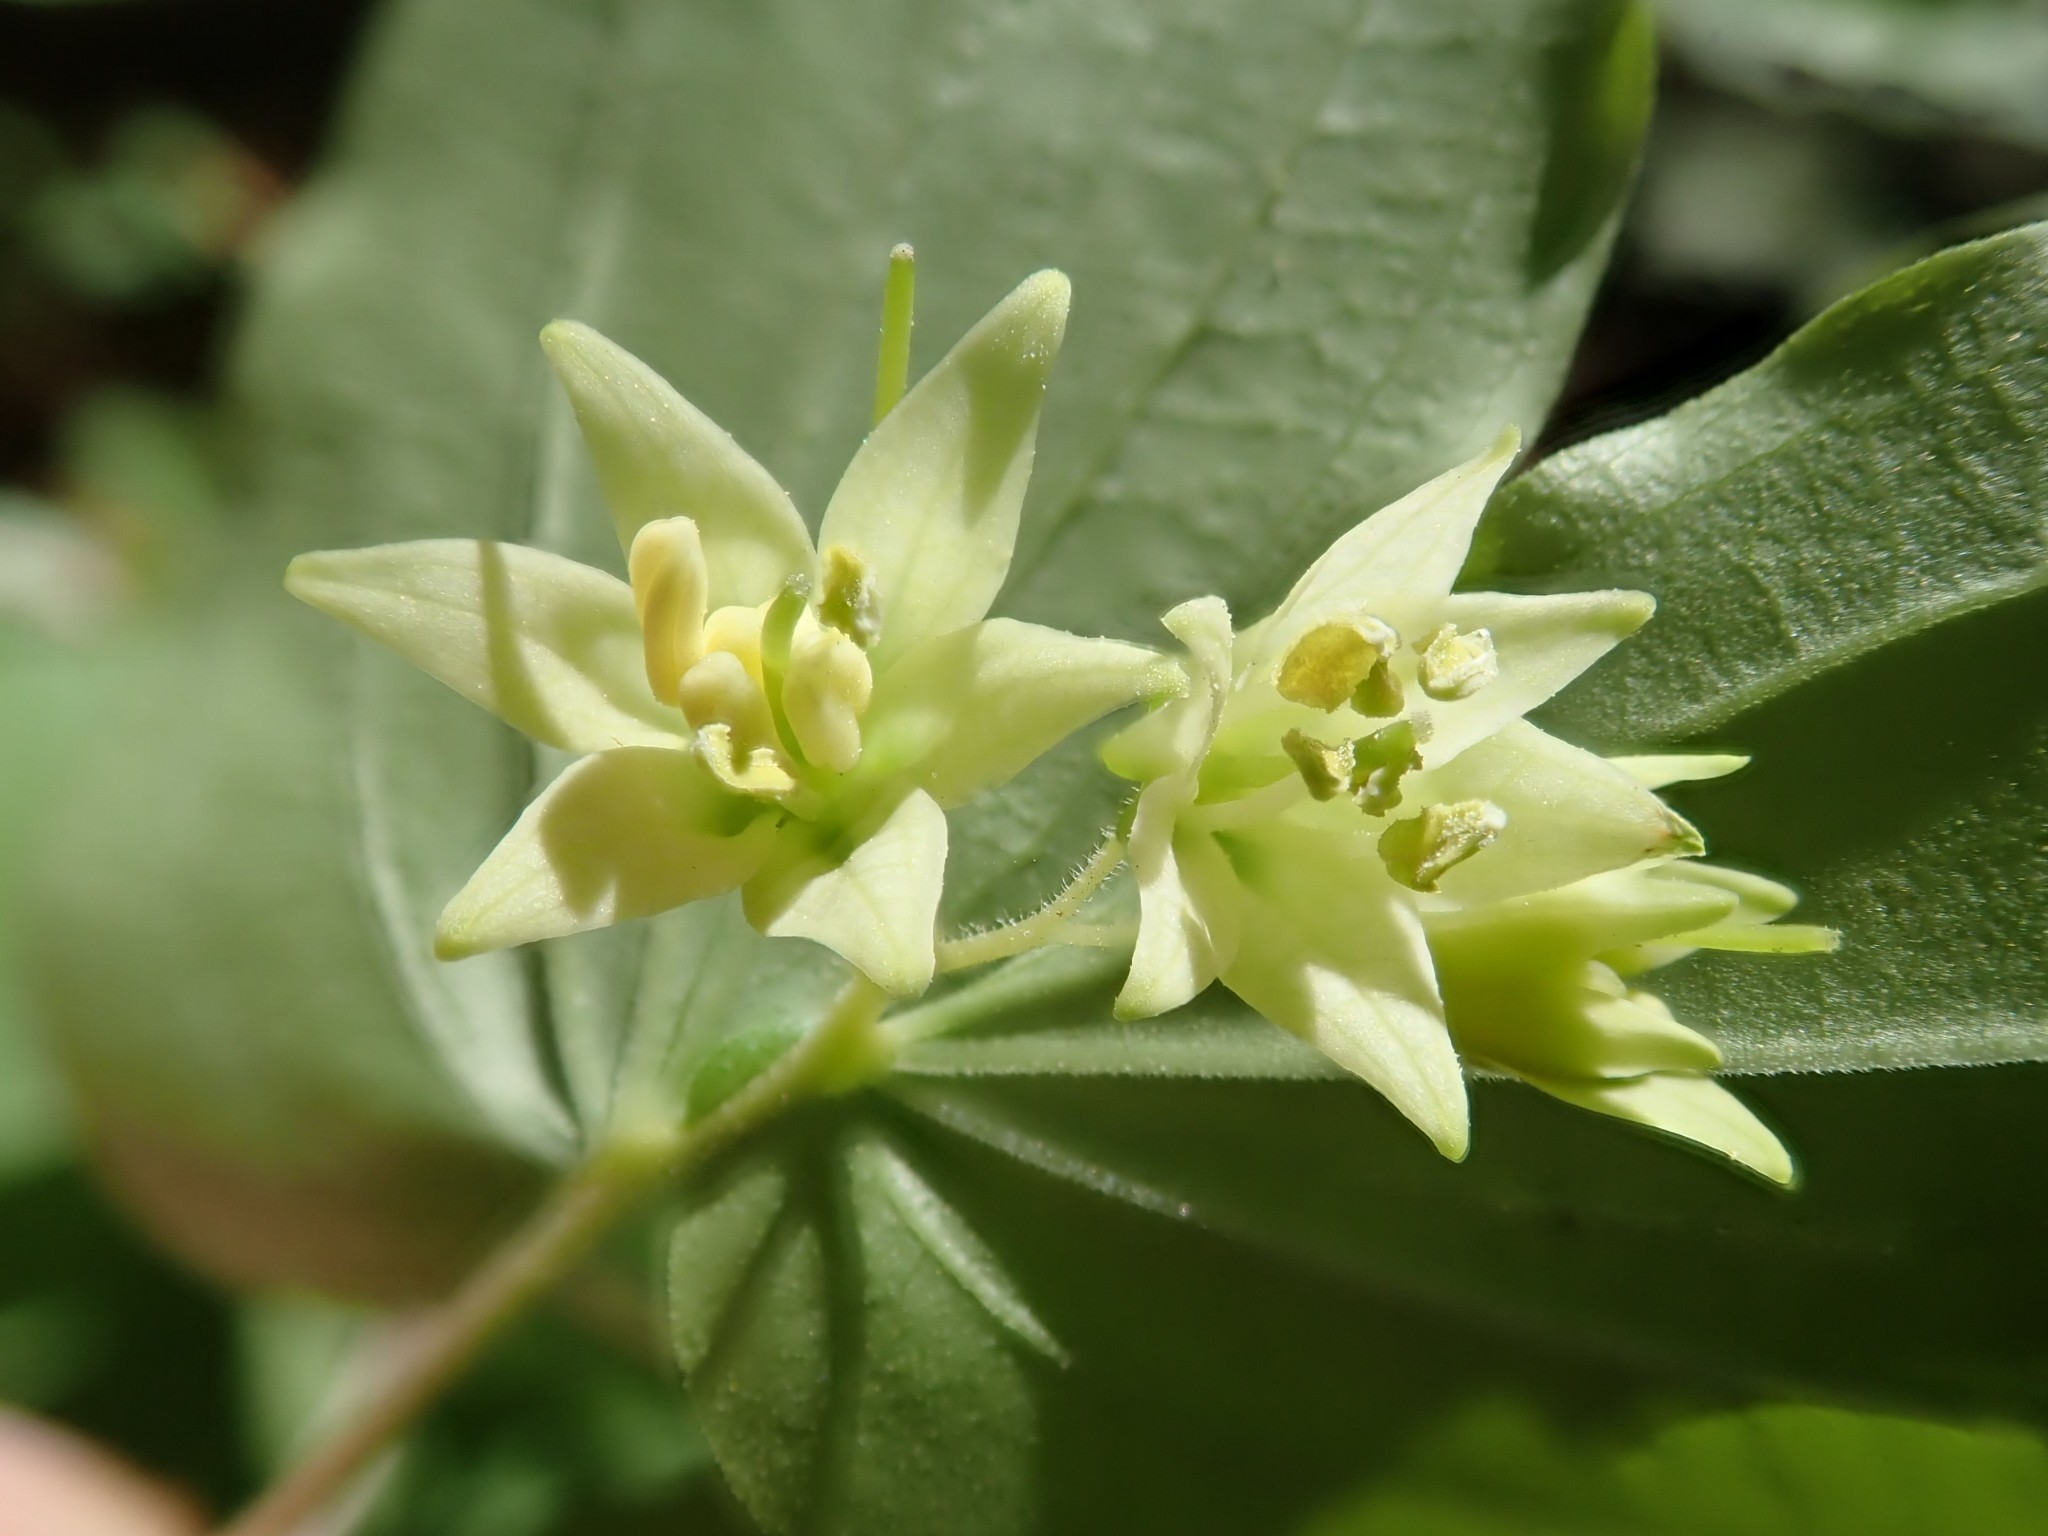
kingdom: Plantae
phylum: Tracheophyta
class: Liliopsida
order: Liliales
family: Liliaceae
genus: Prosartes
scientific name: Prosartes hookeri
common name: Fairy-bells
